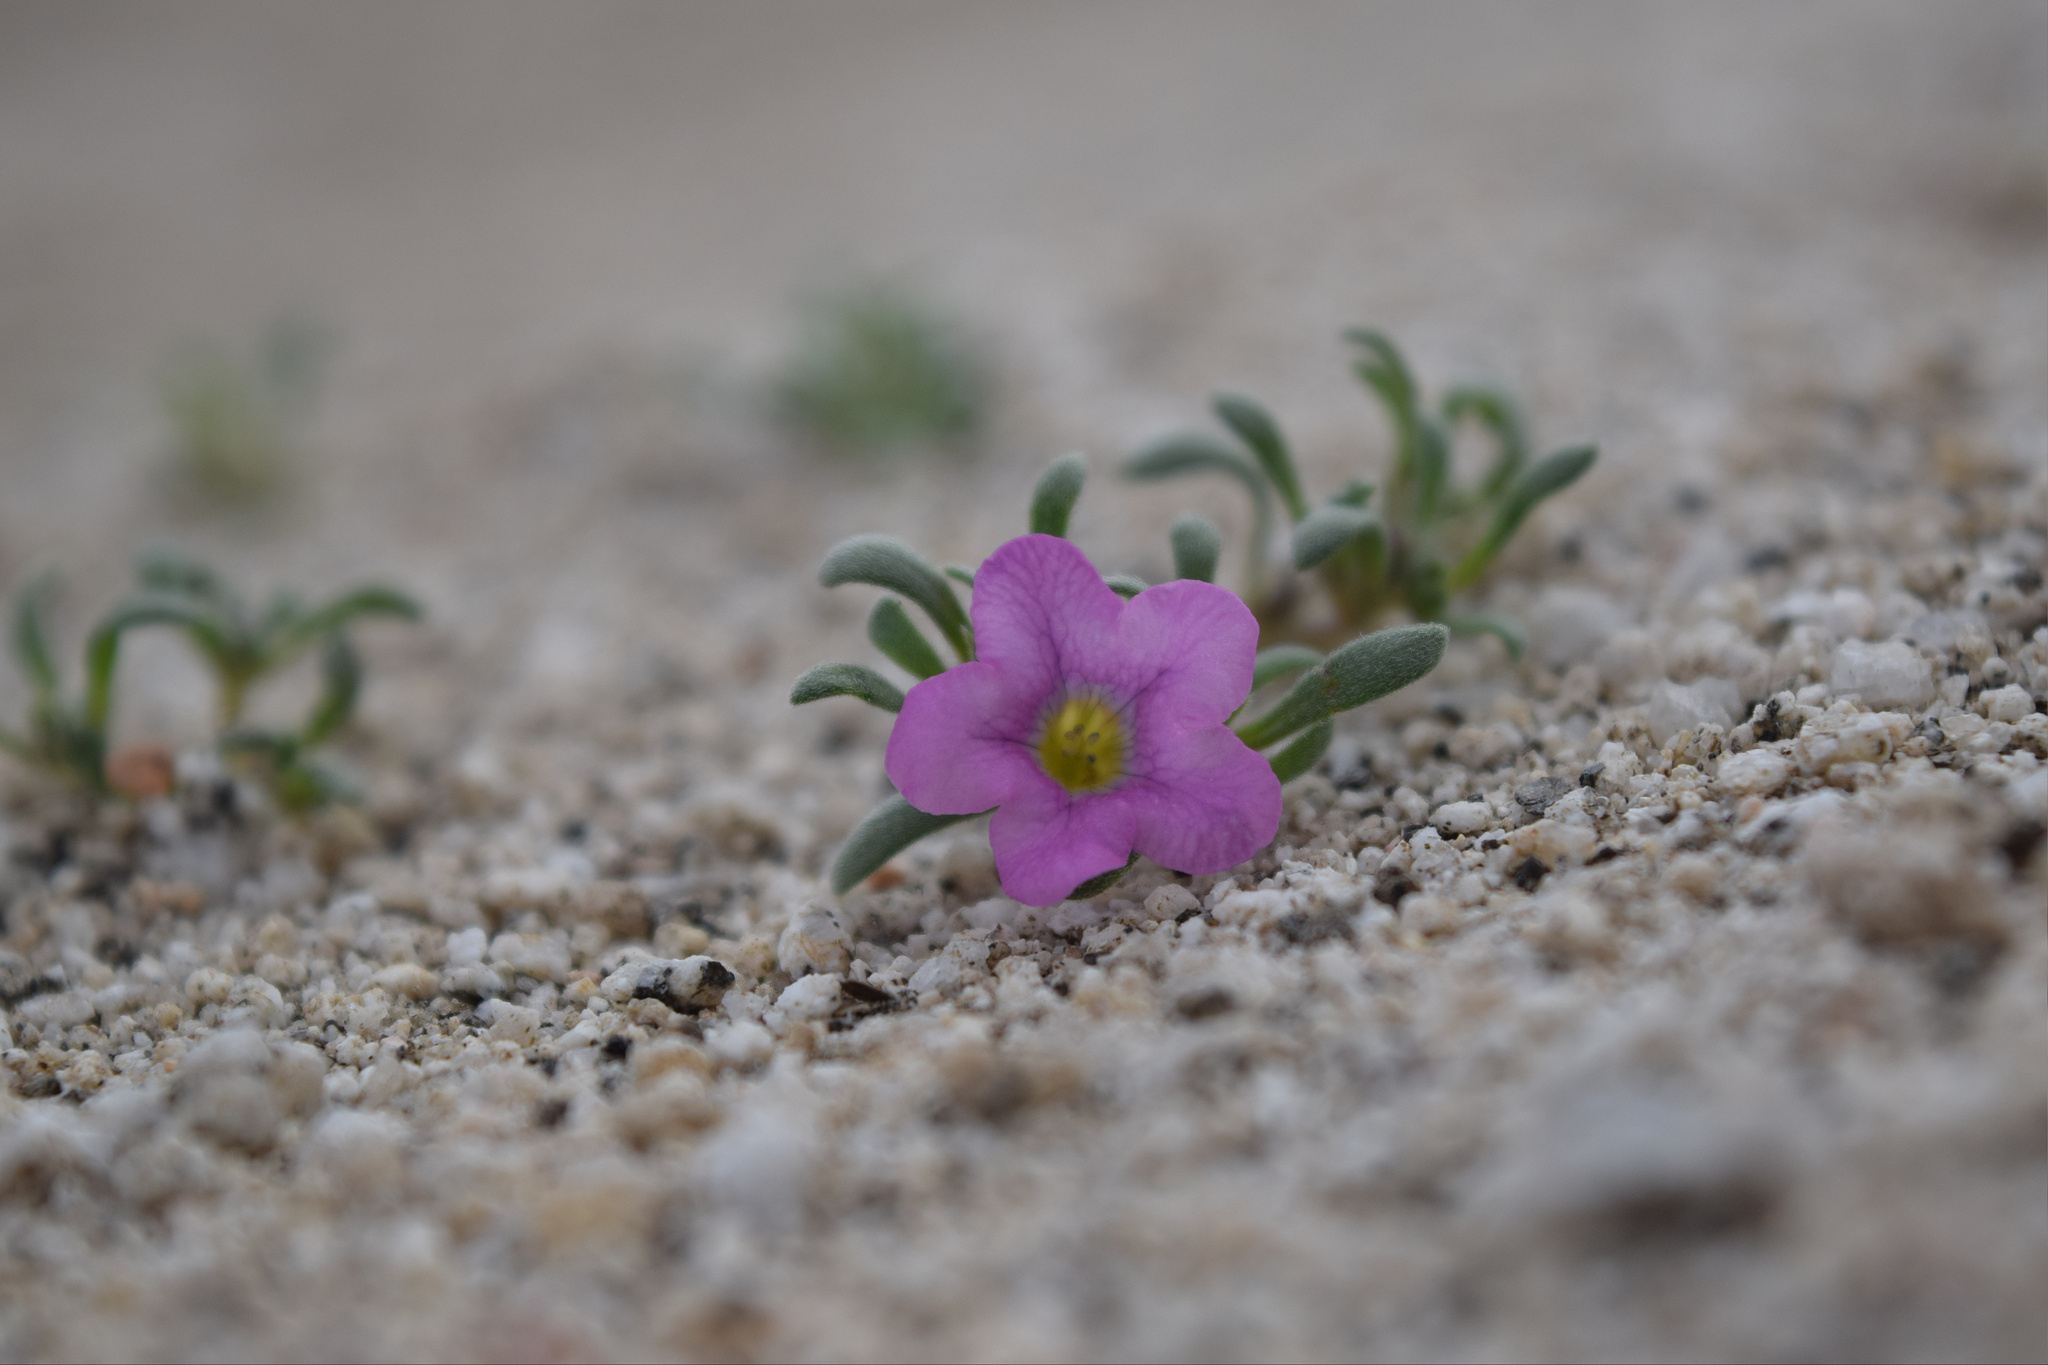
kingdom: Plantae
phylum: Tracheophyta
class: Magnoliopsida
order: Boraginales
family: Namaceae
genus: Nama
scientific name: Nama demissa
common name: Leafy nama
